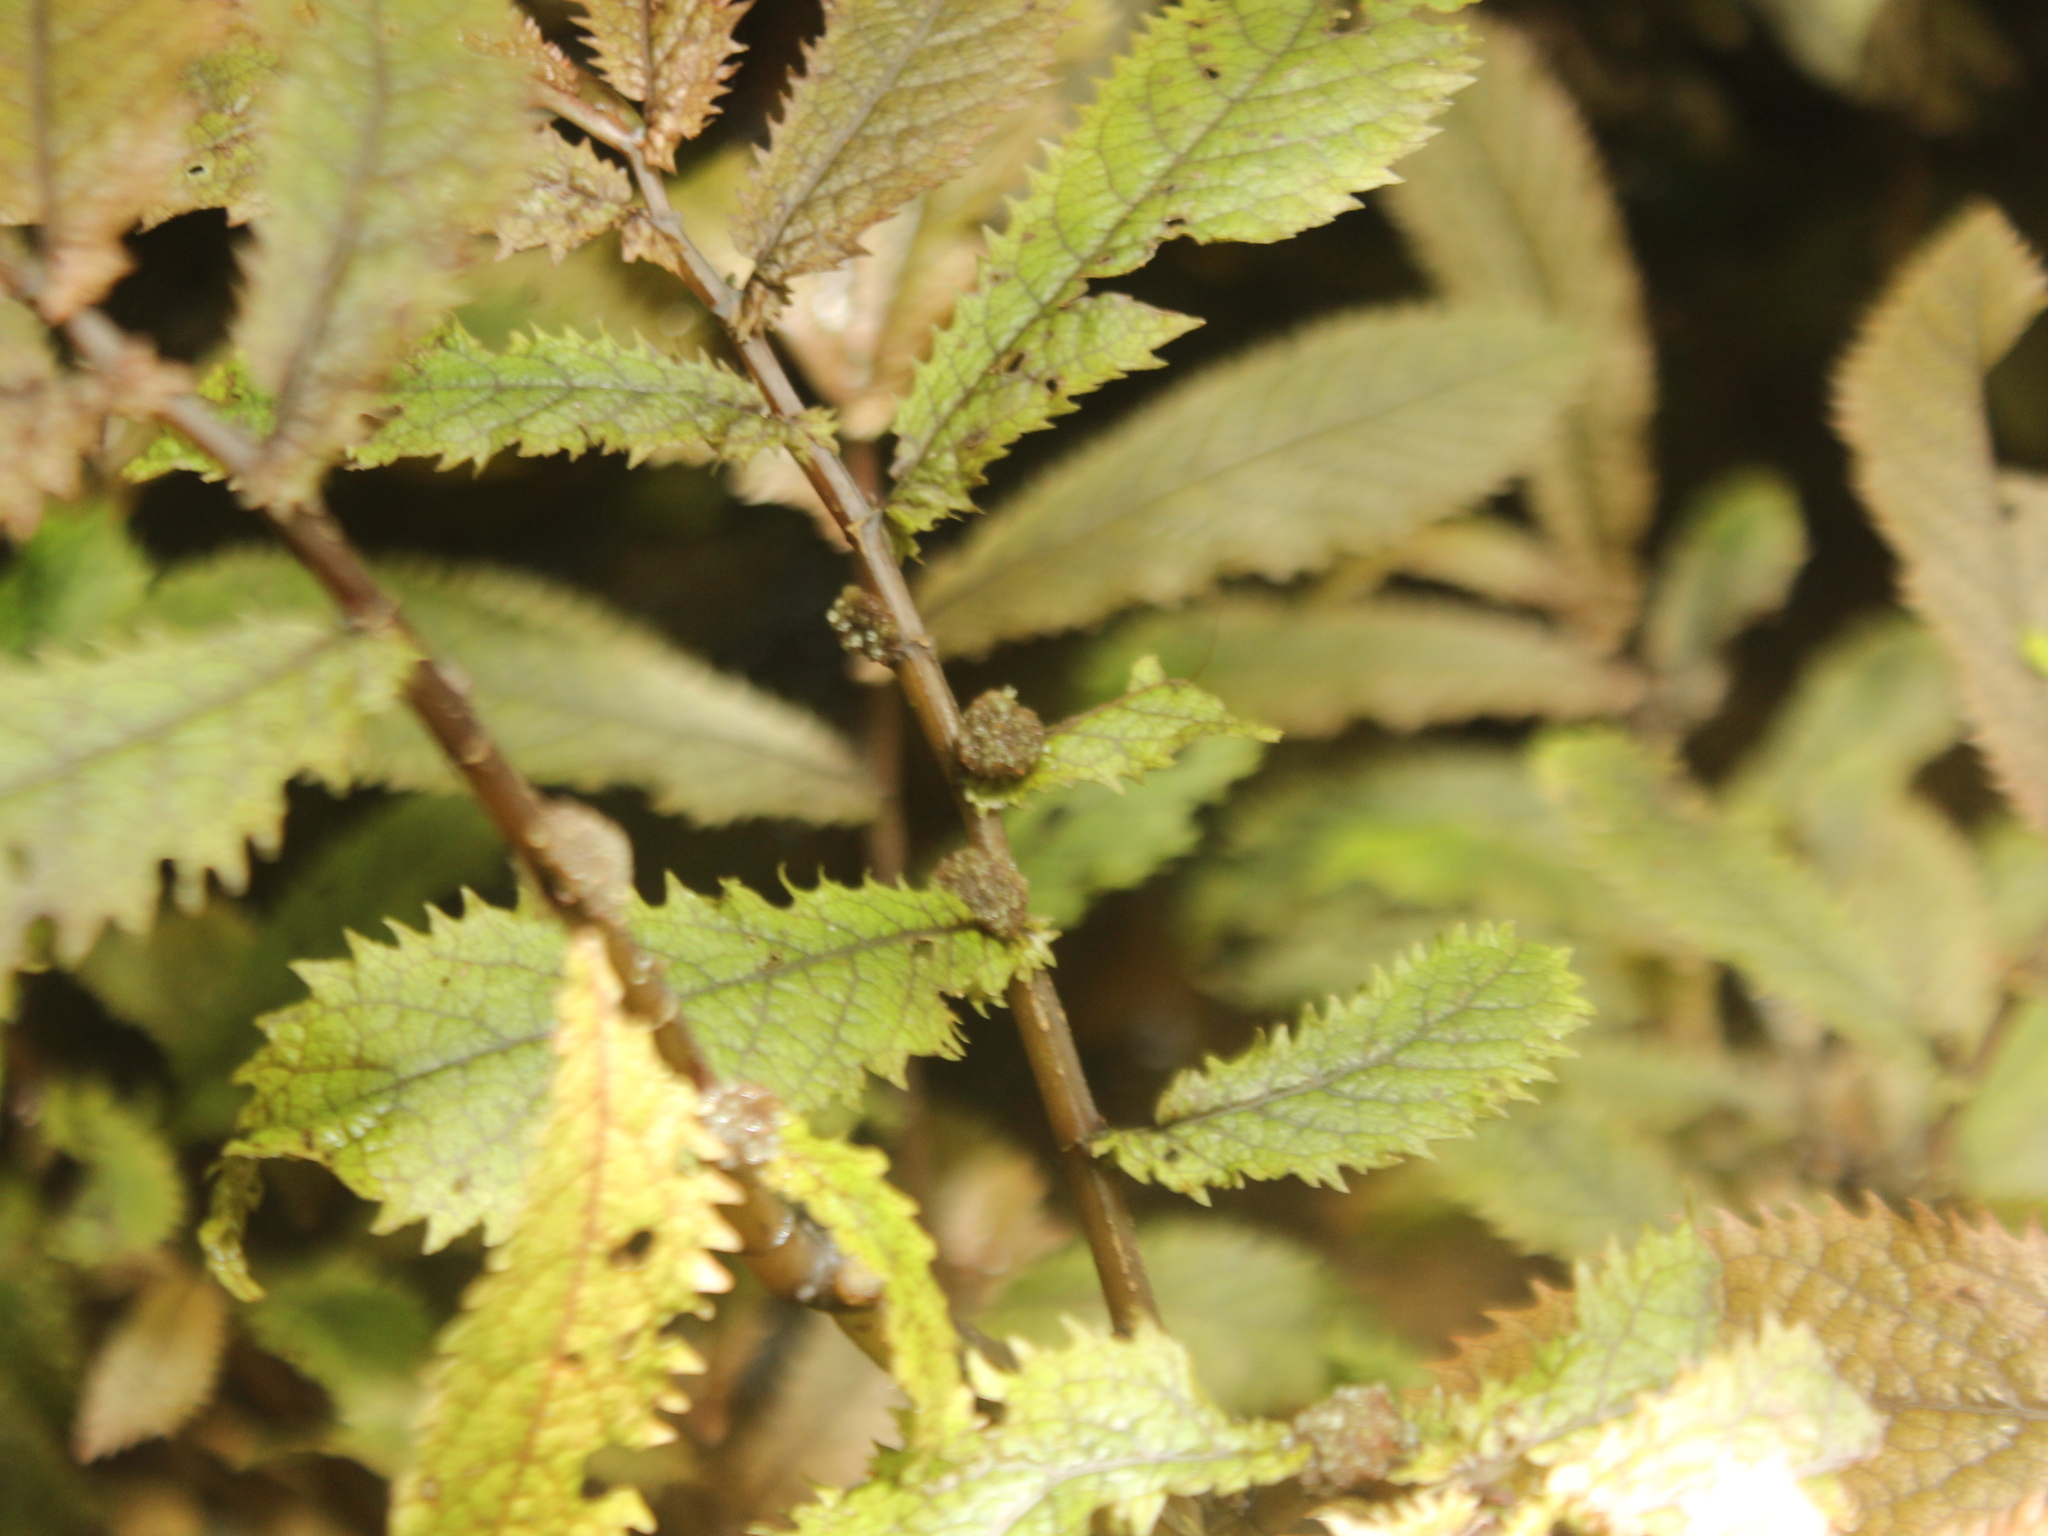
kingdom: Plantae
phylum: Tracheophyta
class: Magnoliopsida
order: Rosales
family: Urticaceae
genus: Elatostema
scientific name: Elatostema rugosum
